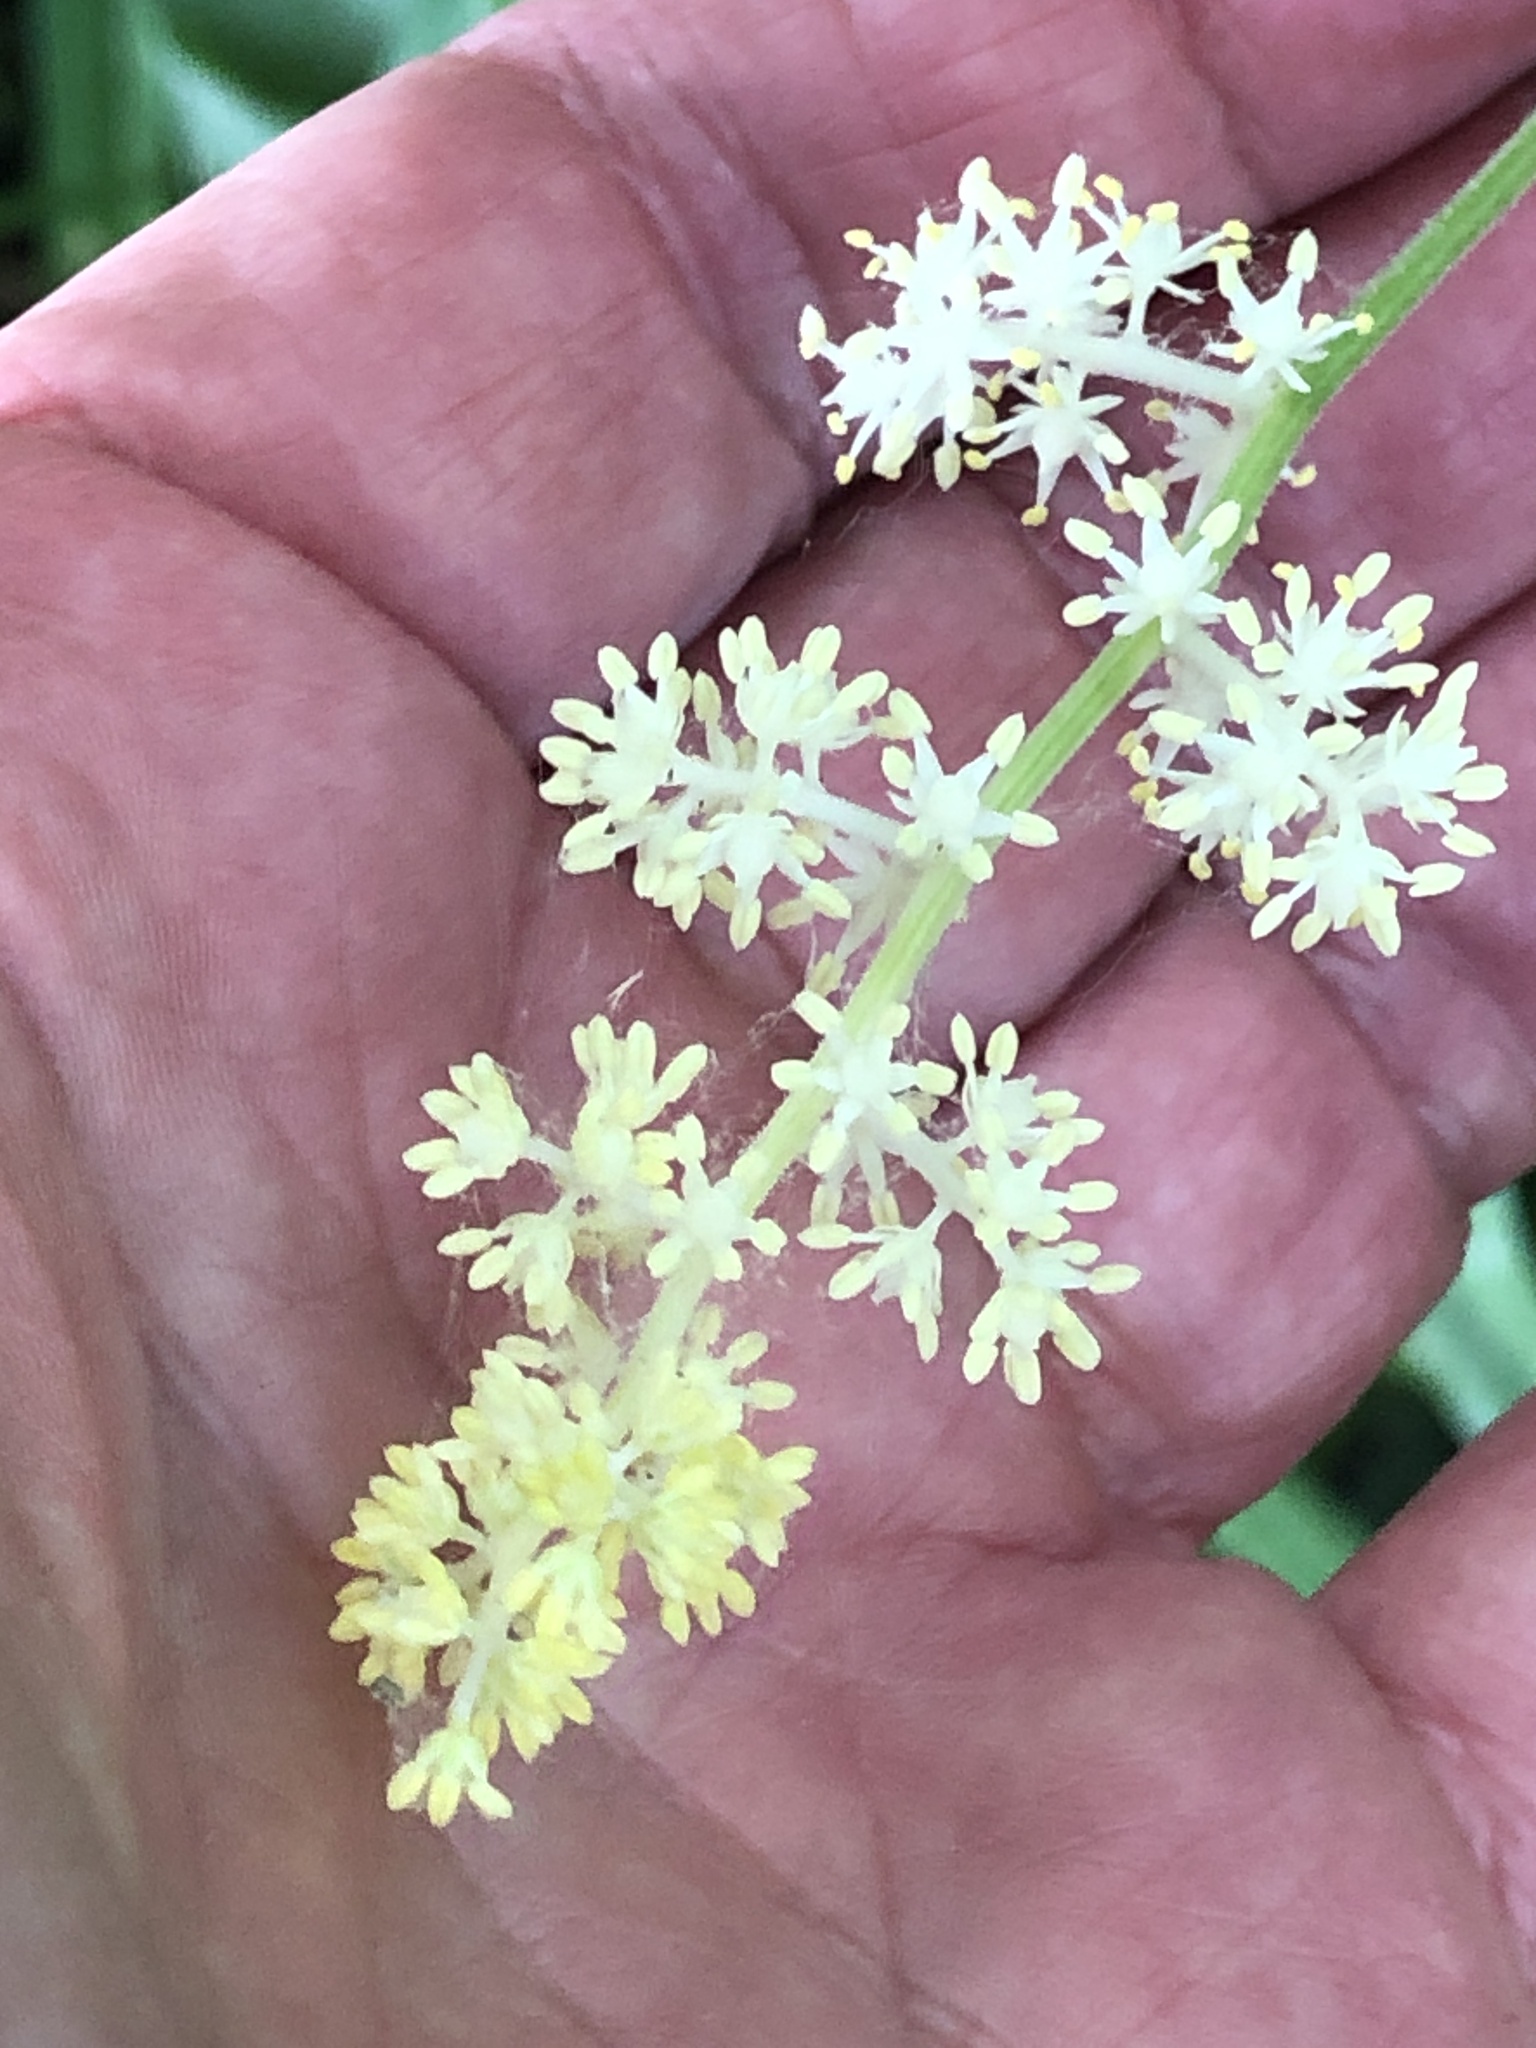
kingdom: Plantae
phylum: Tracheophyta
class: Liliopsida
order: Asparagales
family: Asparagaceae
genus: Maianthemum
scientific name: Maianthemum racemosum
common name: False spikenard
